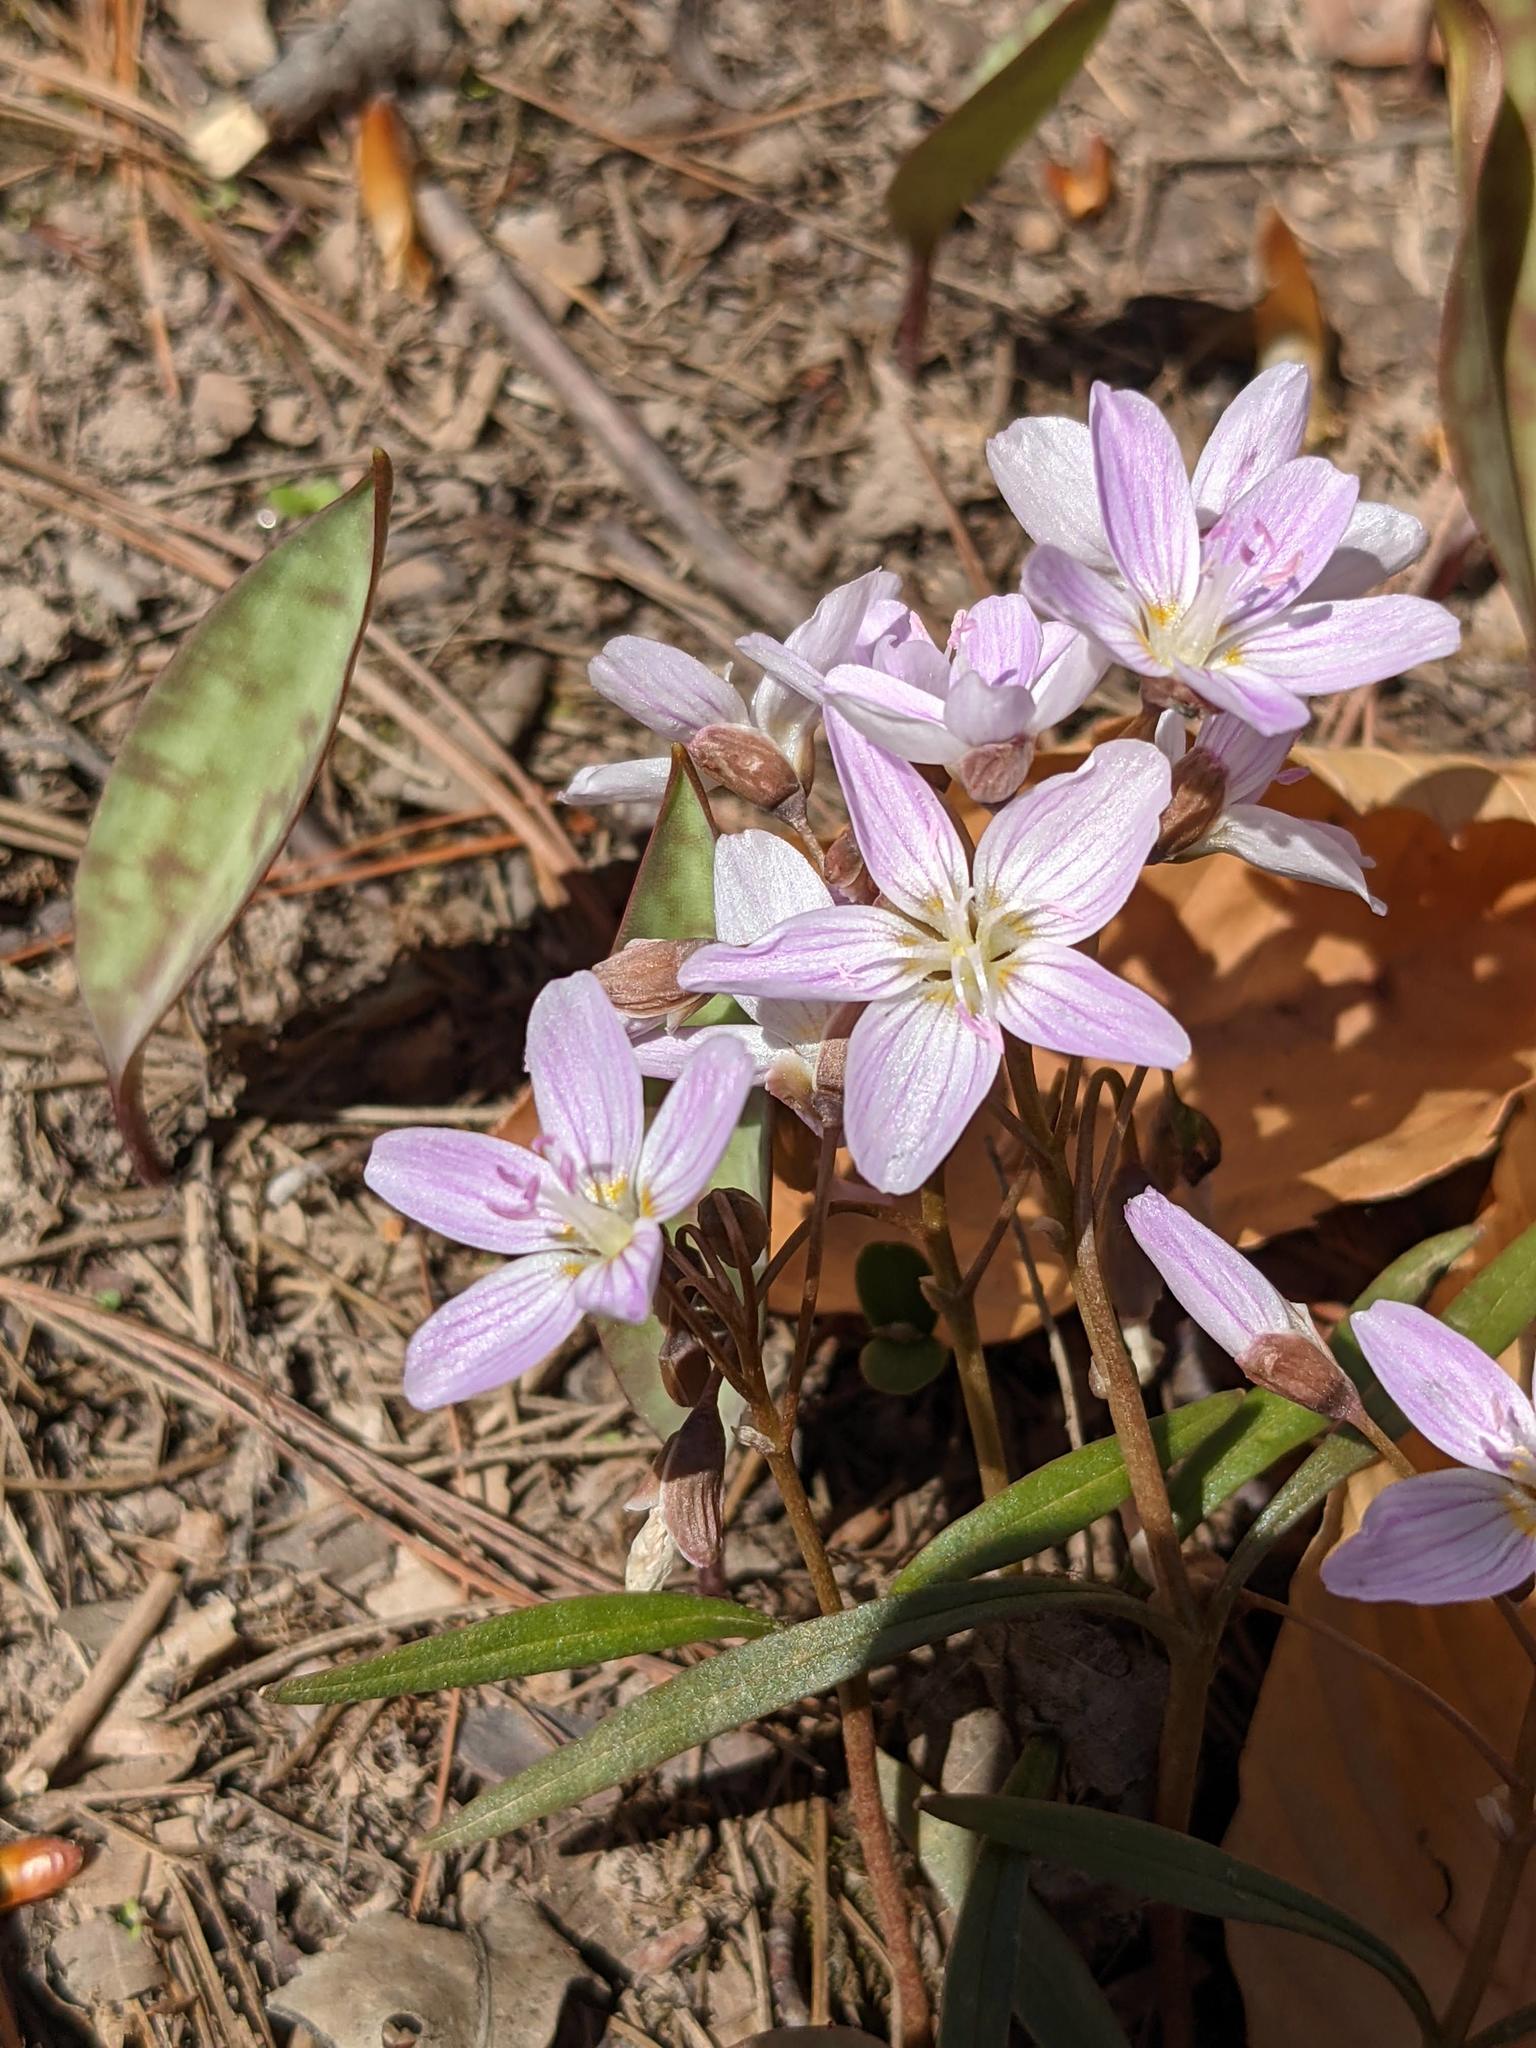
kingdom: Plantae
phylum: Tracheophyta
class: Magnoliopsida
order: Caryophyllales
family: Montiaceae
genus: Claytonia
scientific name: Claytonia virginica
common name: Virginia springbeauty
